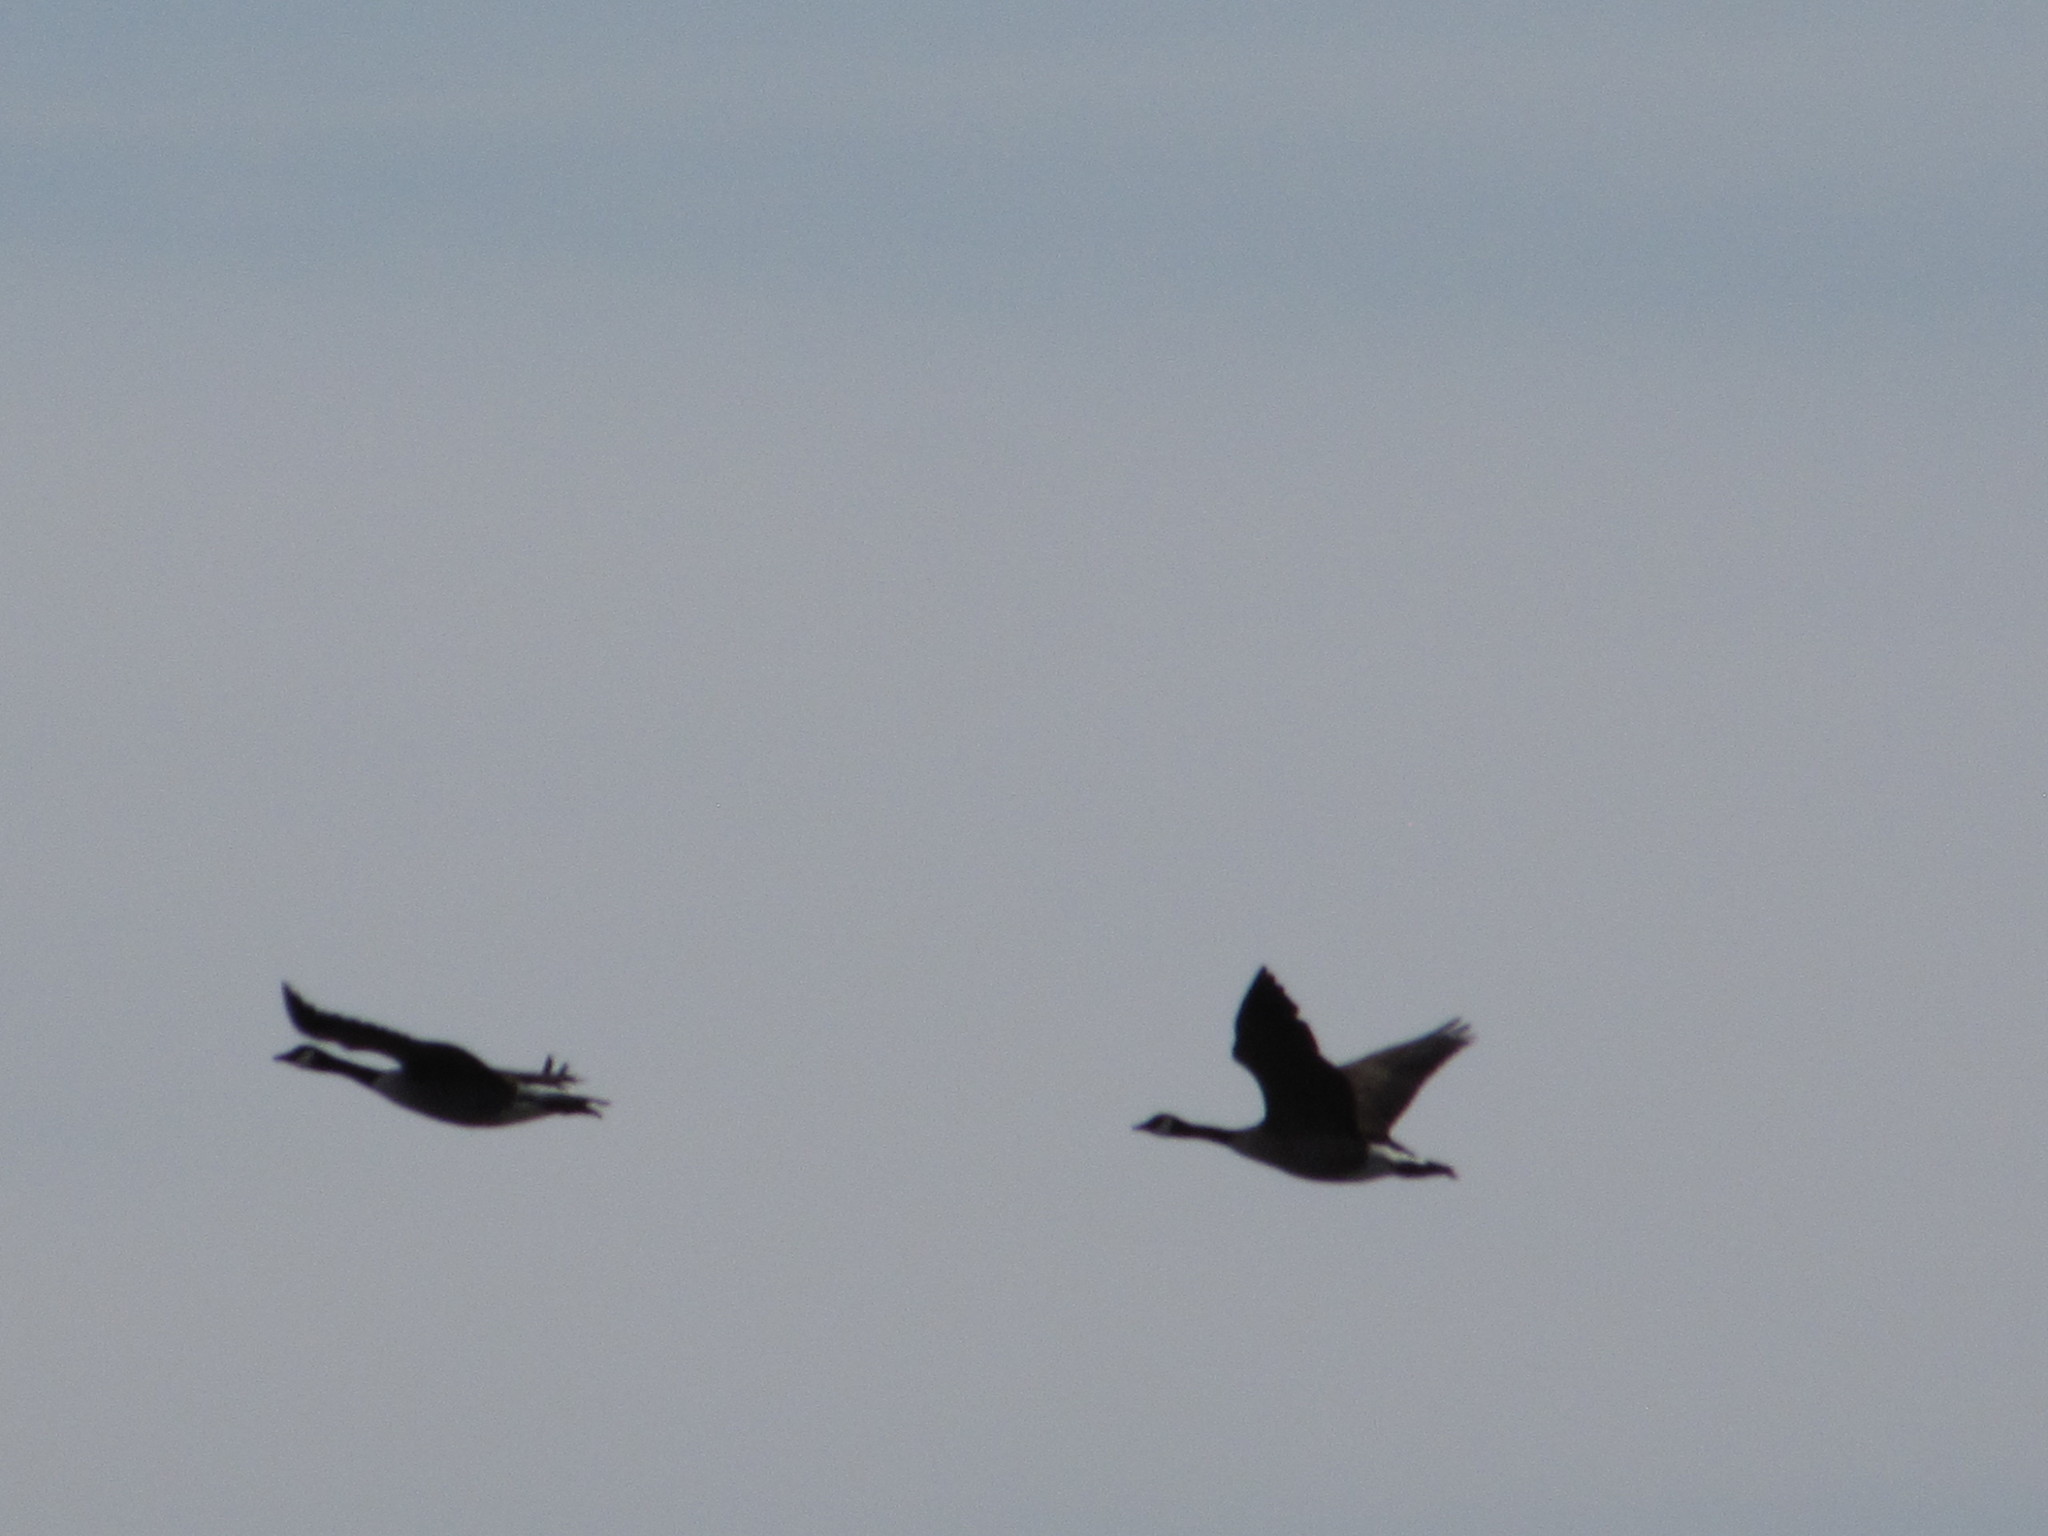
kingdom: Animalia
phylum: Chordata
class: Aves
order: Anseriformes
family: Anatidae
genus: Branta
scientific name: Branta canadensis
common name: Canada goose
